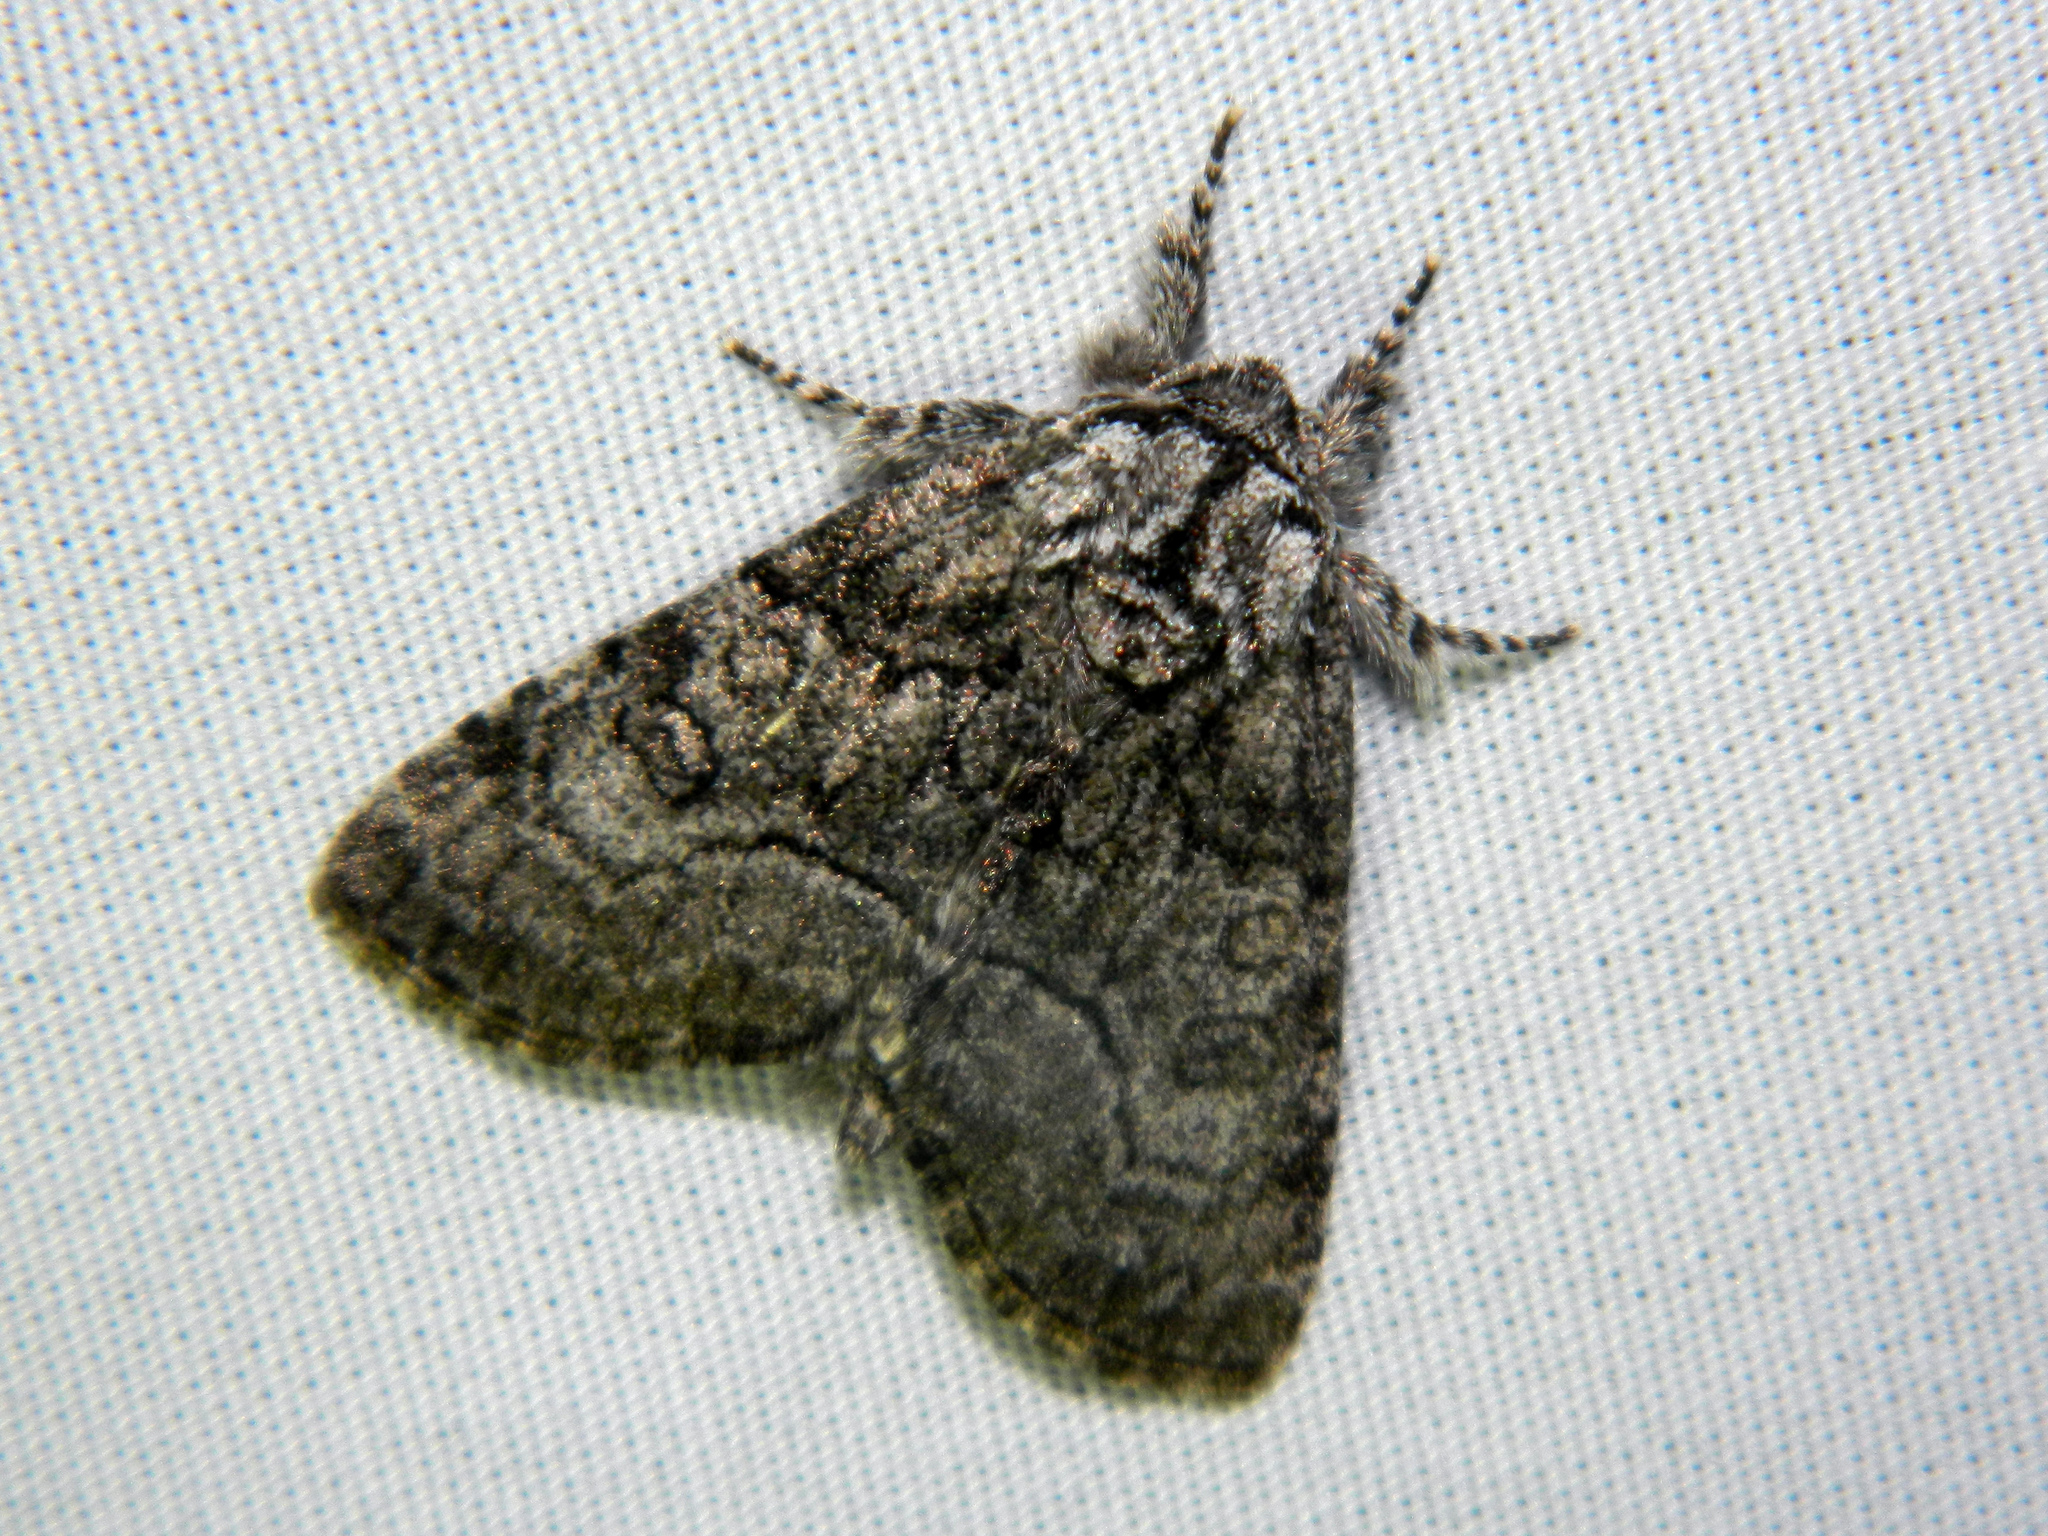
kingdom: Animalia
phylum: Arthropoda
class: Insecta
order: Lepidoptera
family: Noctuidae
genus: Raphia
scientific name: Raphia frater
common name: Brother
